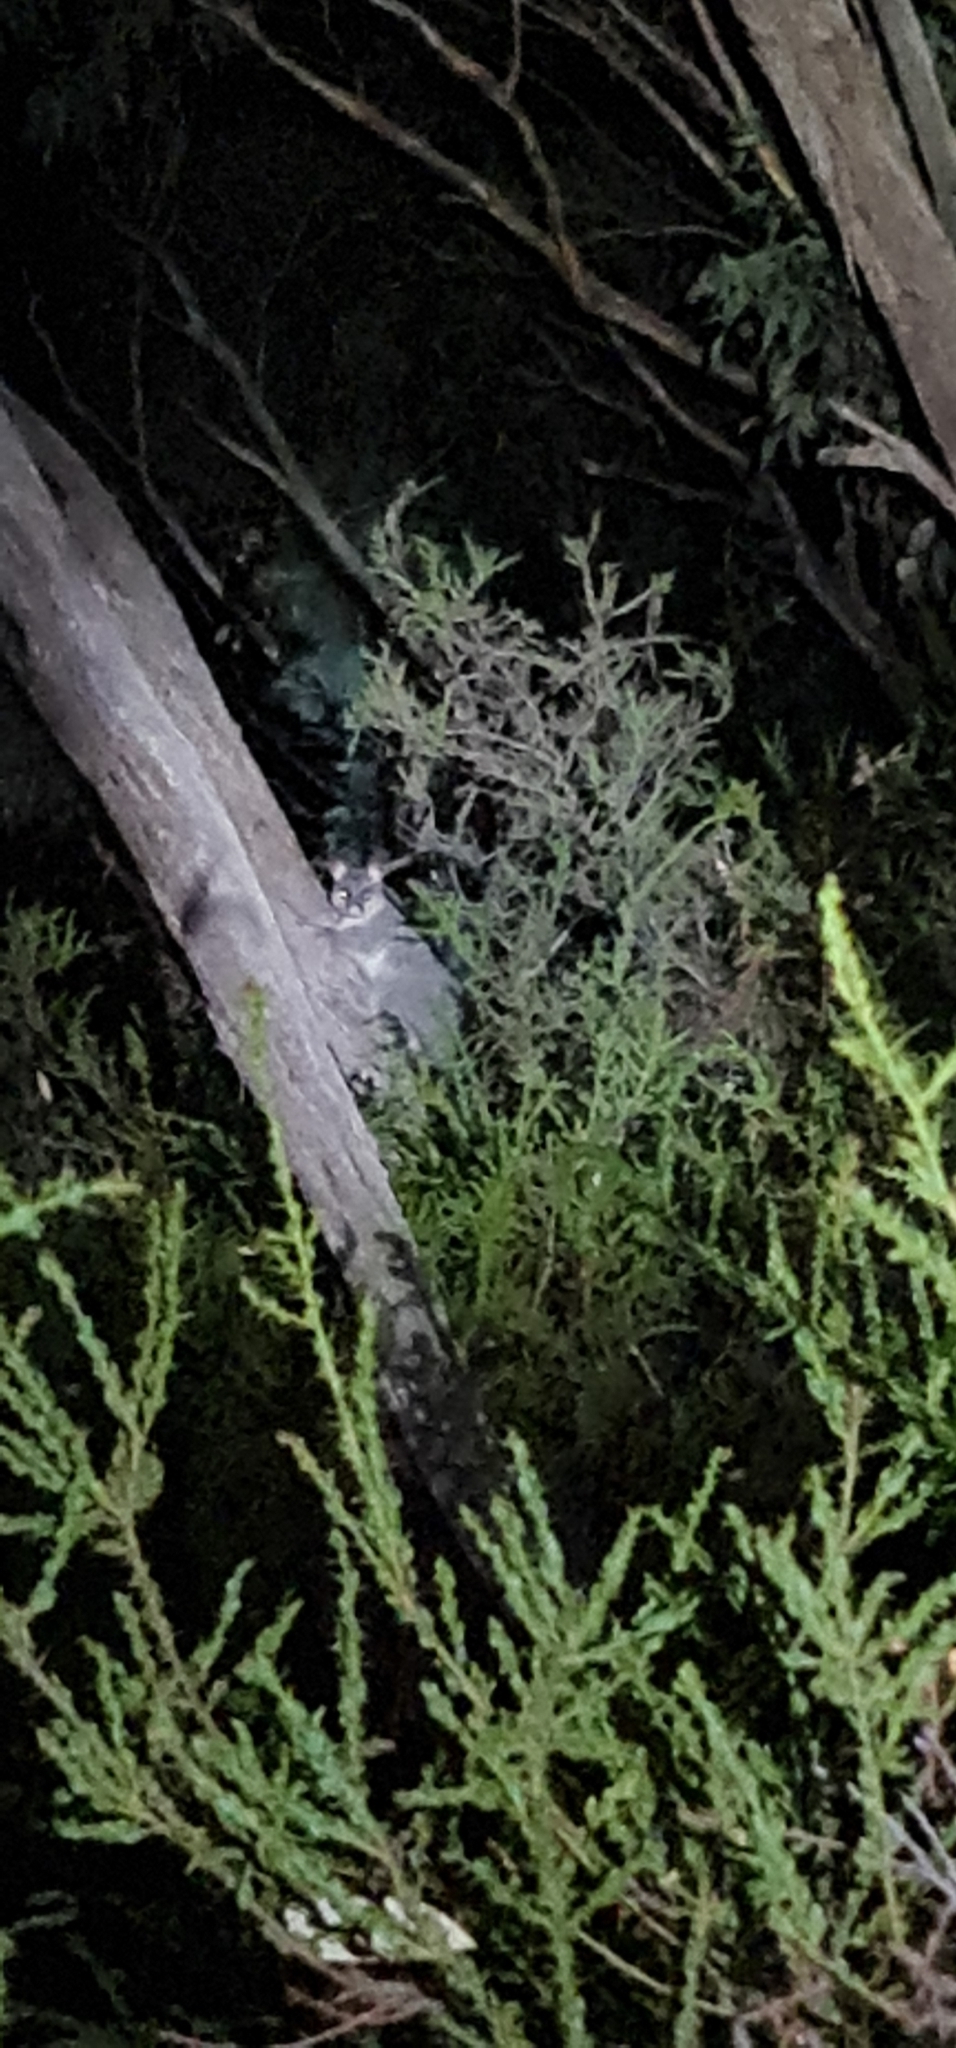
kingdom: Animalia
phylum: Chordata
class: Mammalia
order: Diprotodontia
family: Phalangeridae
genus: Trichosurus
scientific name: Trichosurus vulpecula
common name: Common brushtail
